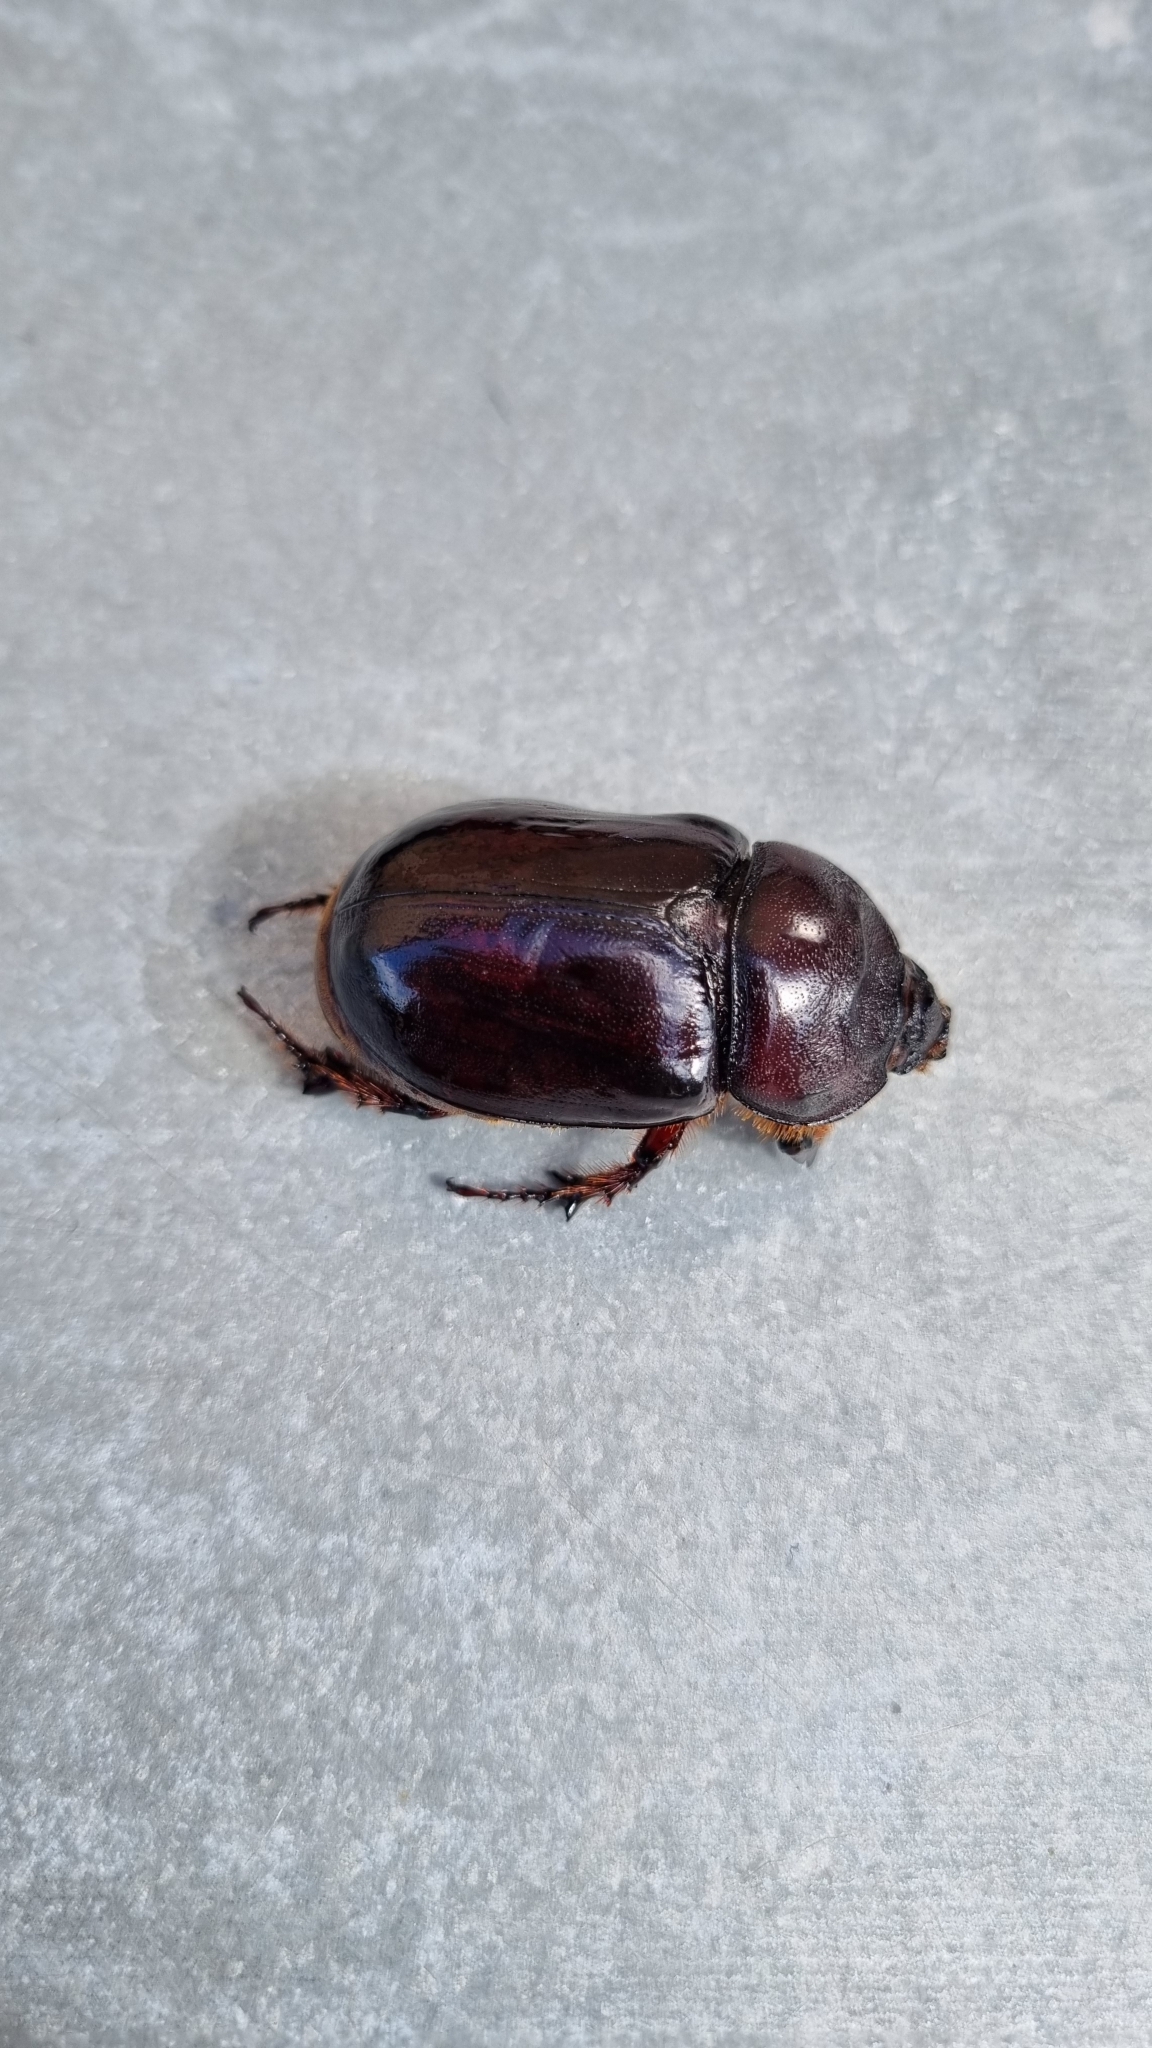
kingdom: Animalia
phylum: Arthropoda
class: Insecta
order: Coleoptera
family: Scarabaeidae
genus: Oryctes
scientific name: Oryctes nasicornis
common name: European rhinoceros beetle
